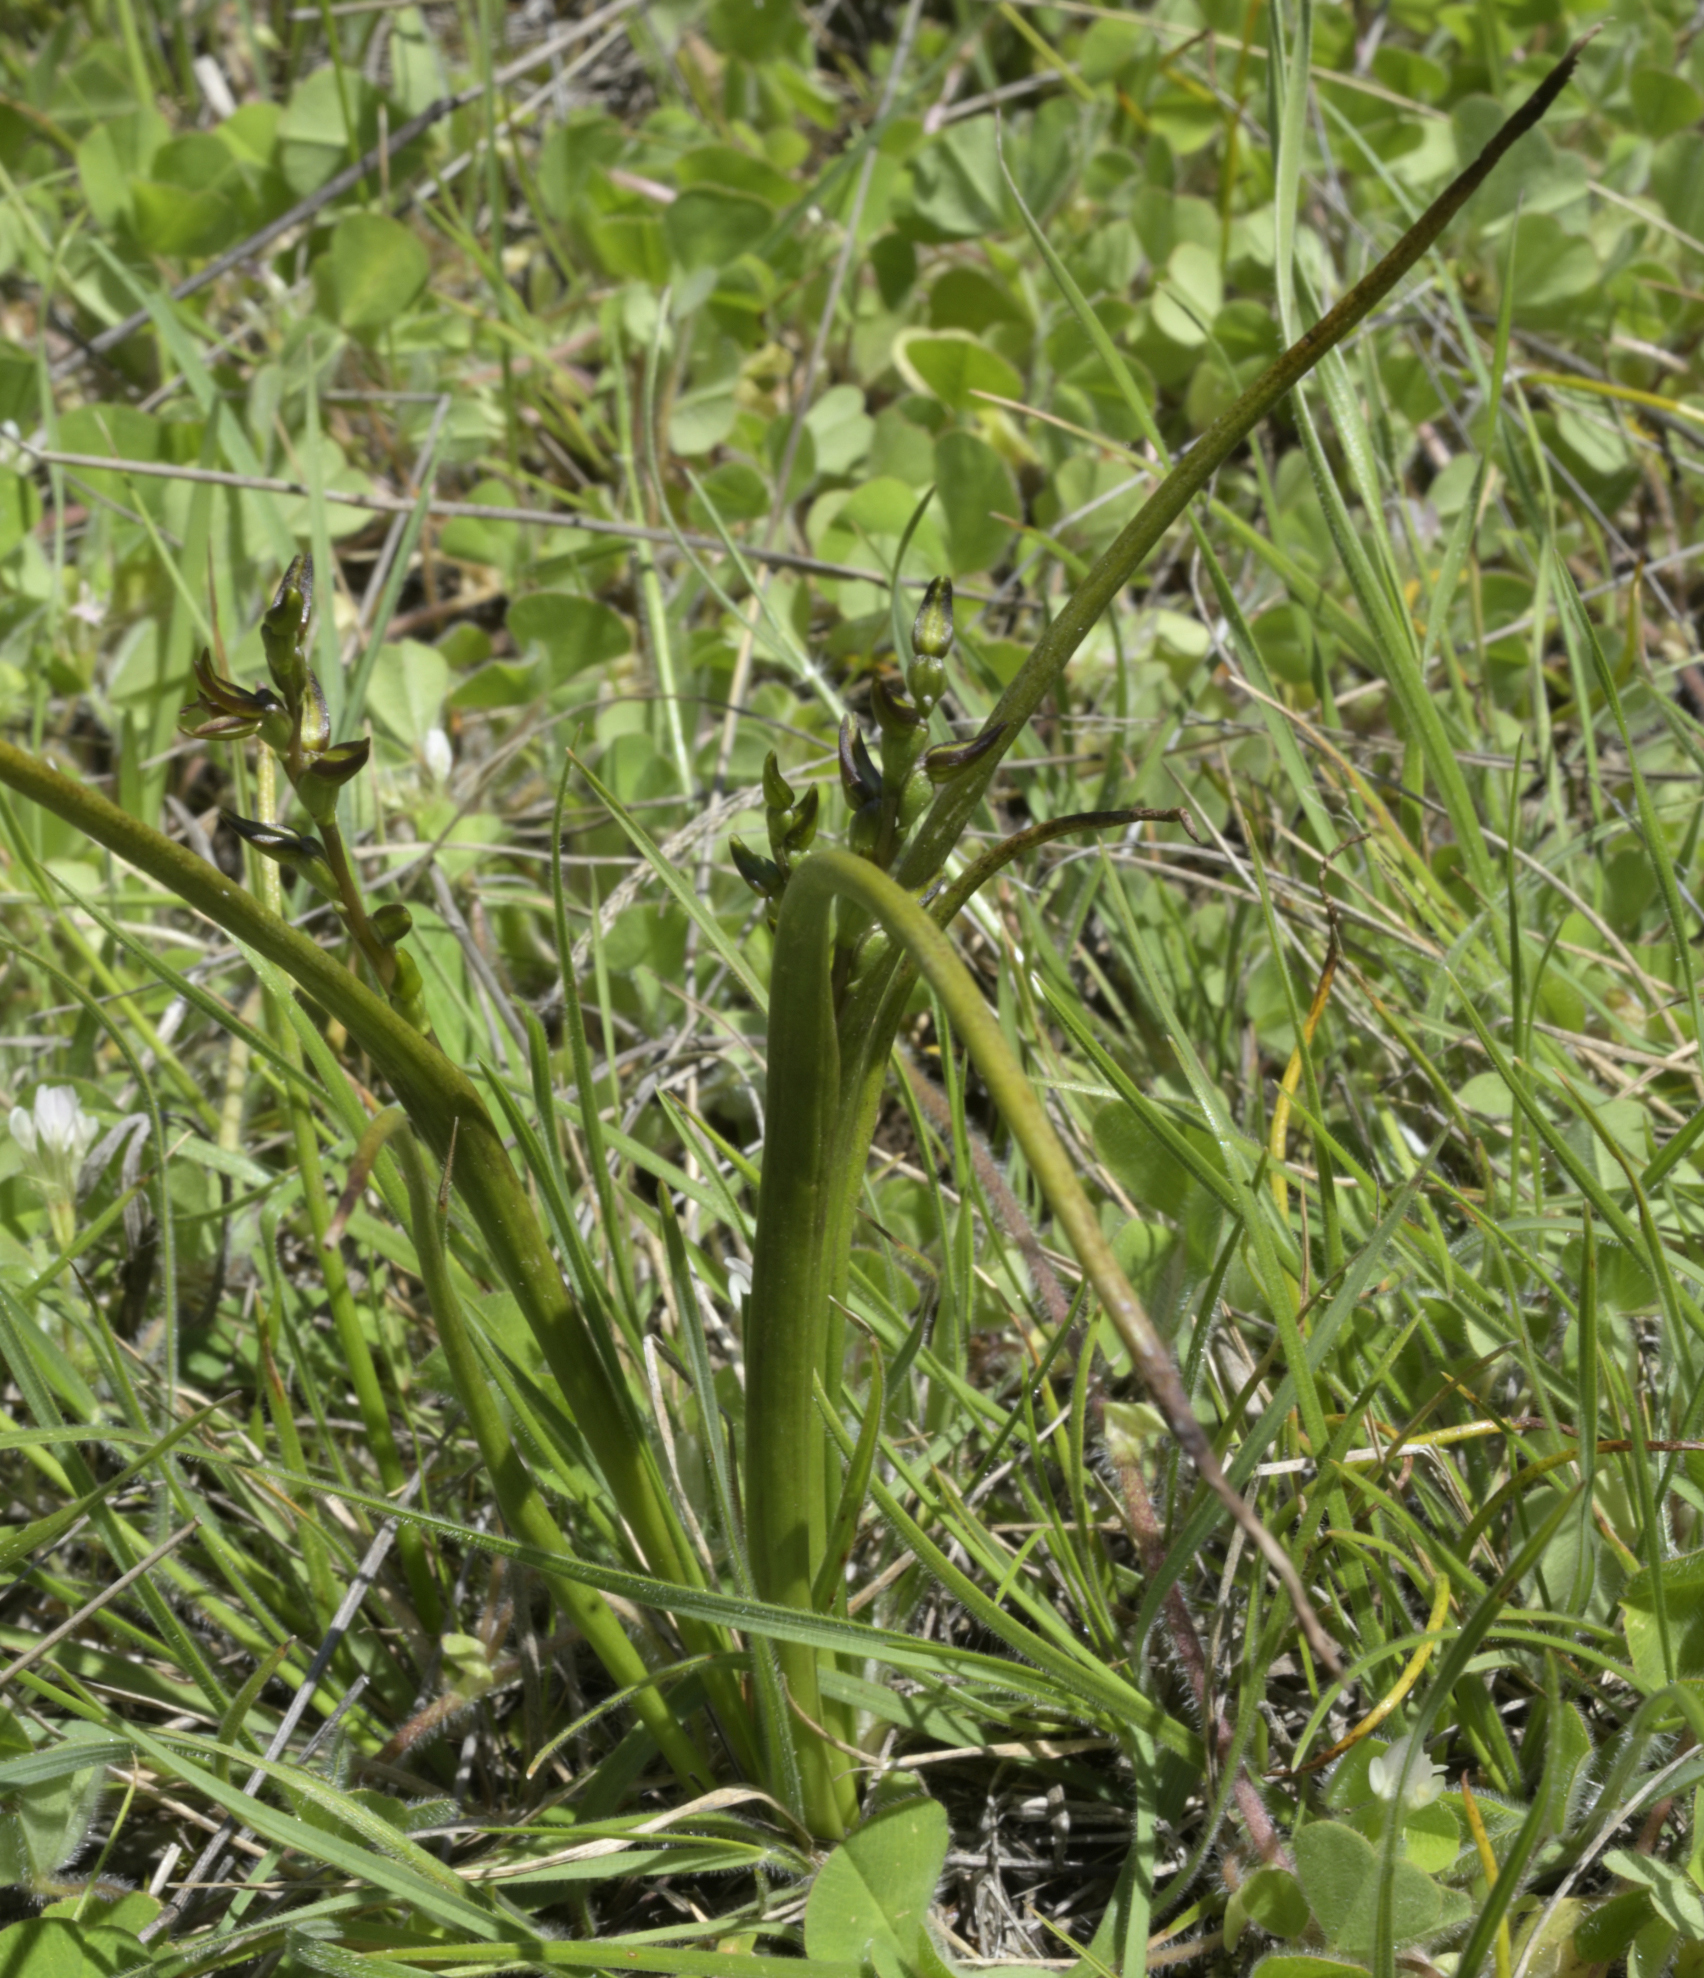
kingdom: Plantae
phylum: Tracheophyta
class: Liliopsida
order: Asparagales
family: Orchidaceae
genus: Prasophyllum
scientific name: Prasophyllum colensoi
